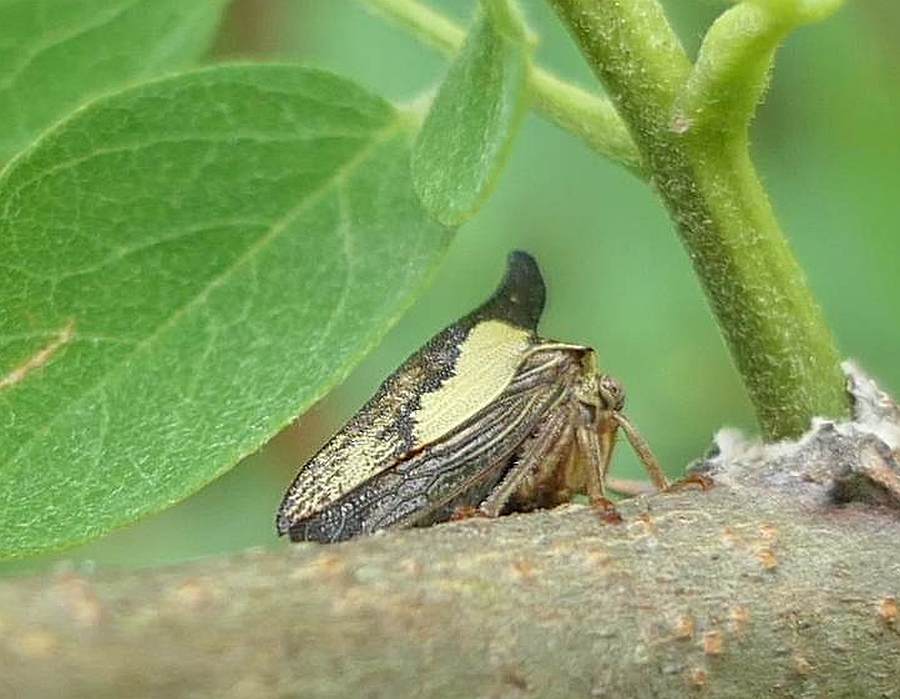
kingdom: Animalia
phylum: Arthropoda
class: Insecta
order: Hemiptera
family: Membracidae
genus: Thelia
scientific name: Thelia bimaculata
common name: Locust treehopper
